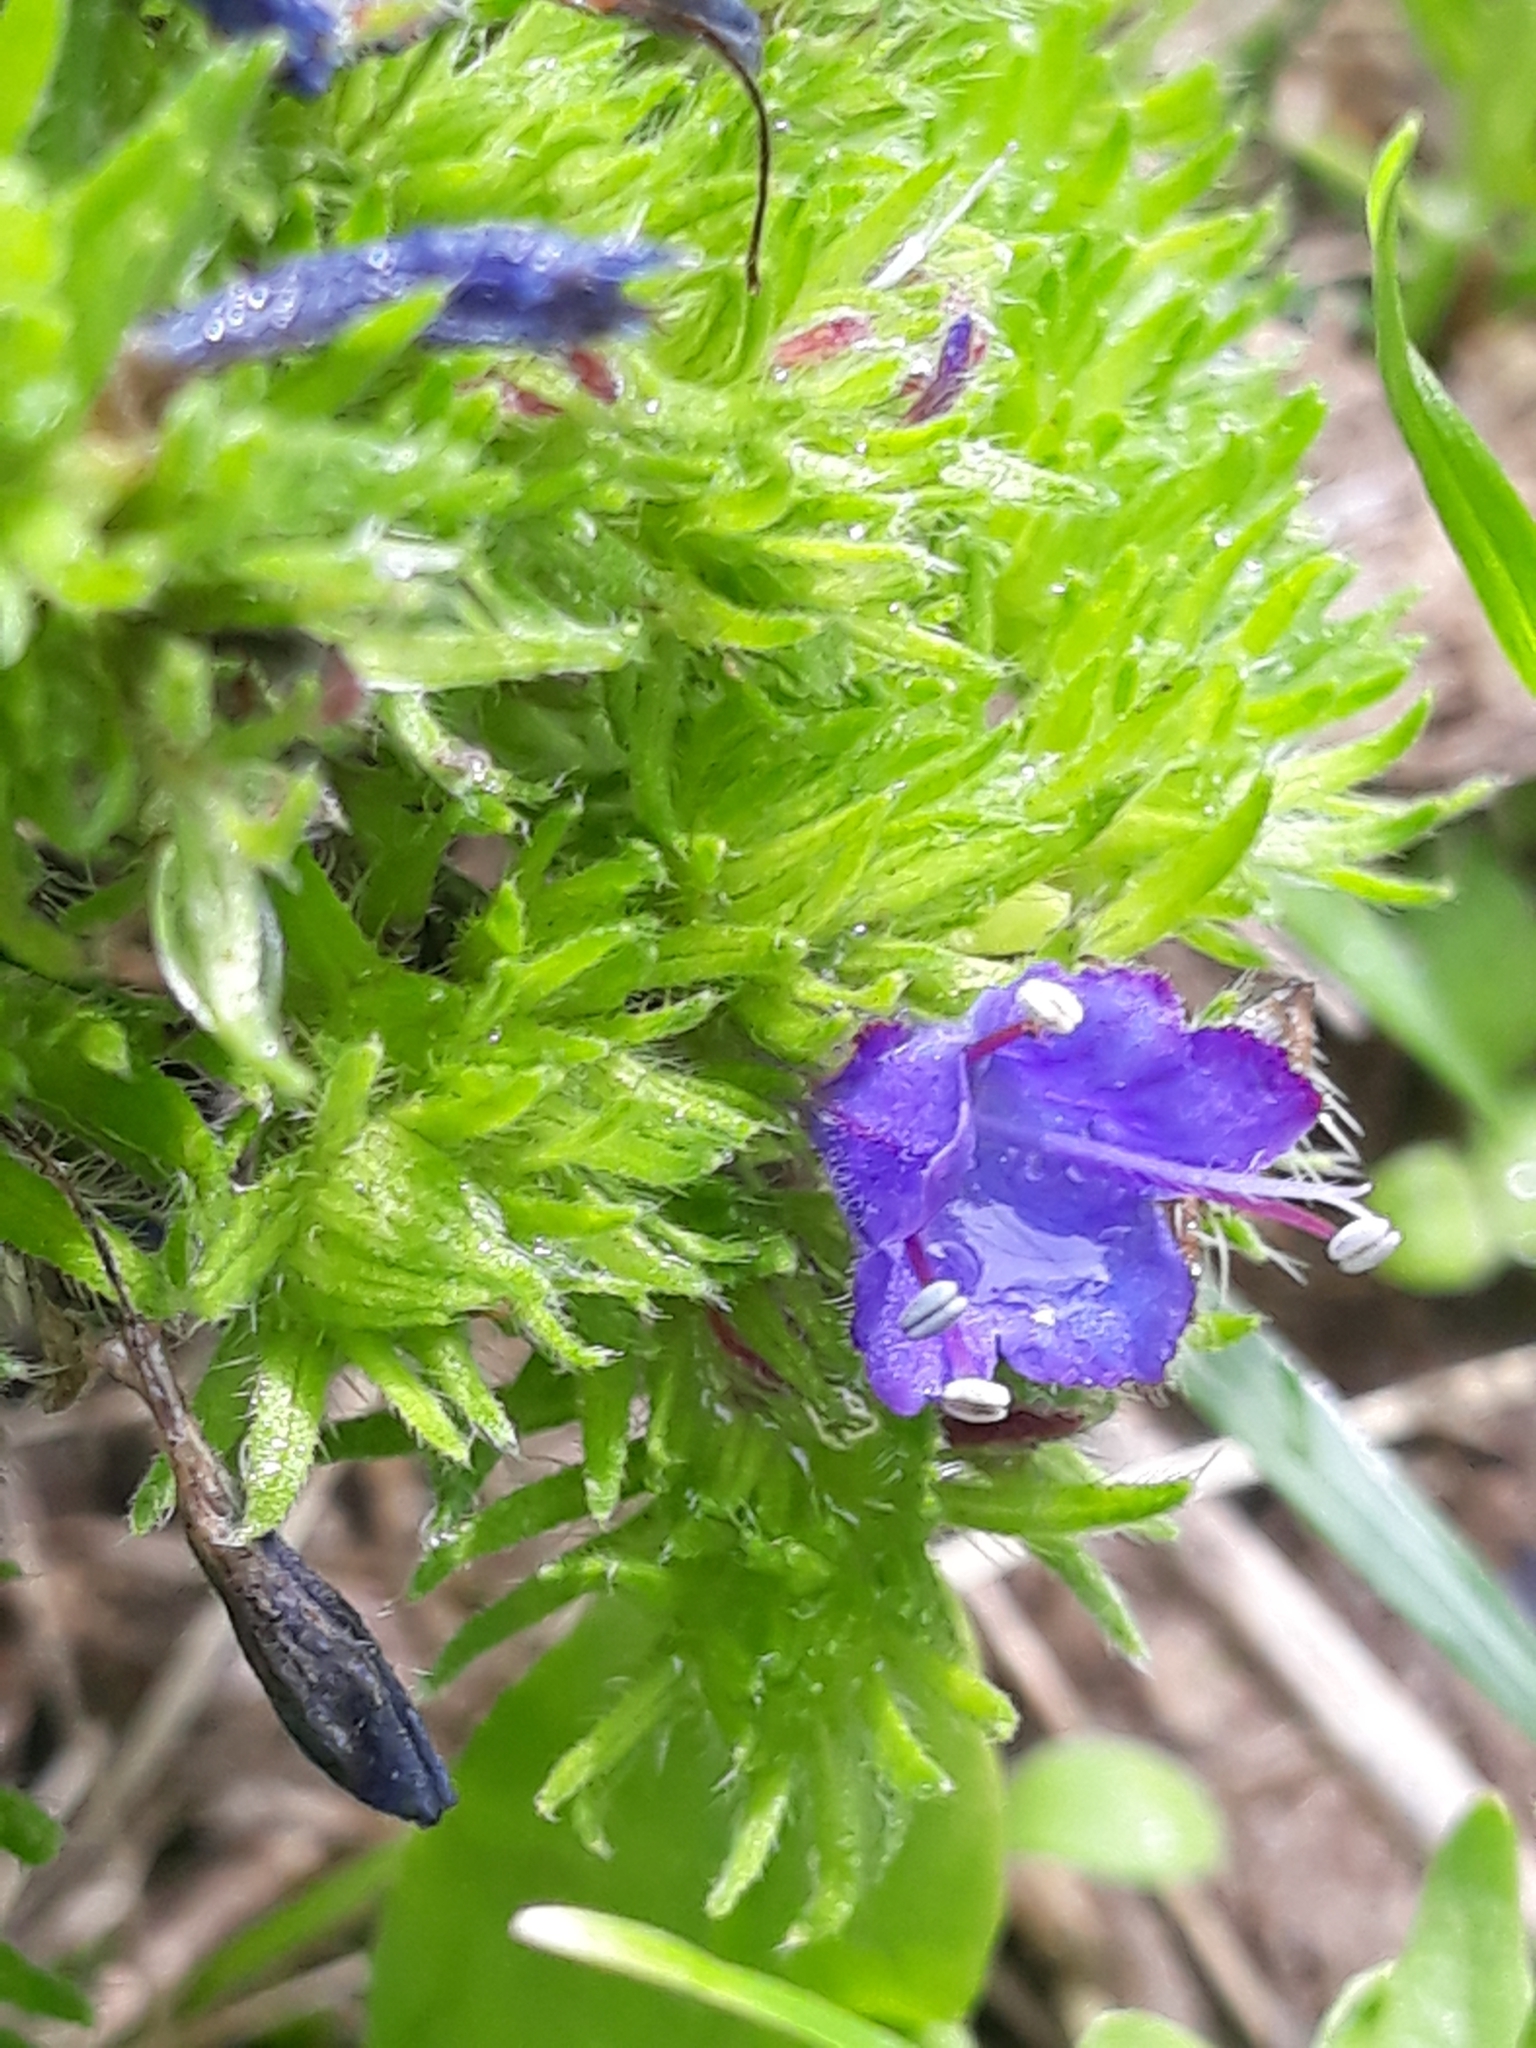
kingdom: Animalia
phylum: Arthropoda
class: Arachnida
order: Trombidiformes
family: Eriophyidae
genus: Aceria
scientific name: Aceria echii
